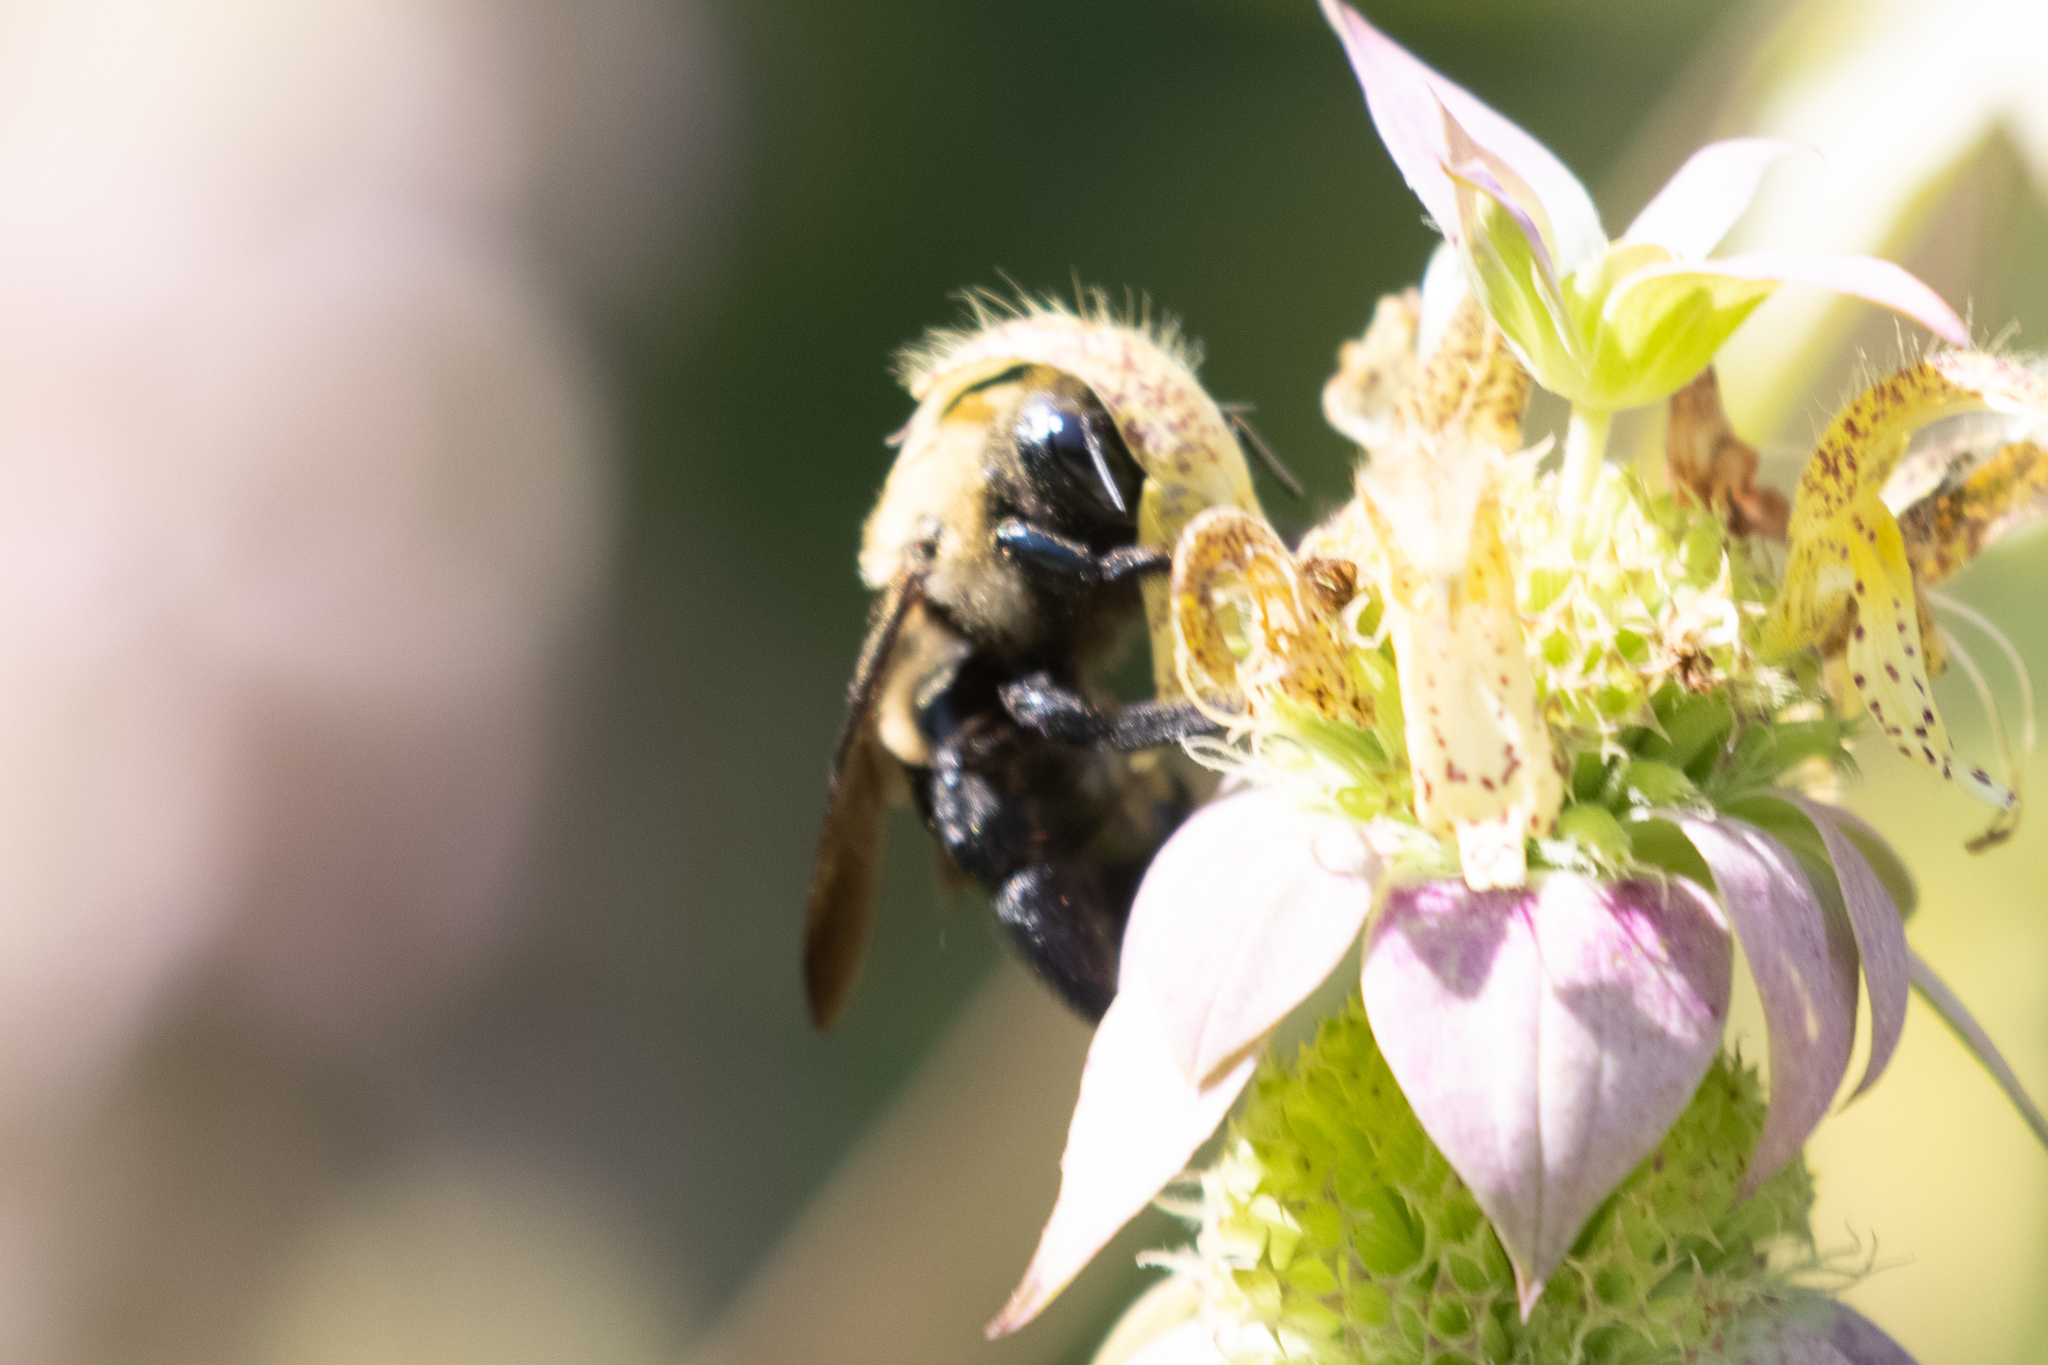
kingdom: Animalia
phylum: Arthropoda
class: Insecta
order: Hymenoptera
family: Apidae
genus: Xylocopa
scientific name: Xylocopa virginica
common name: Carpenter bee
